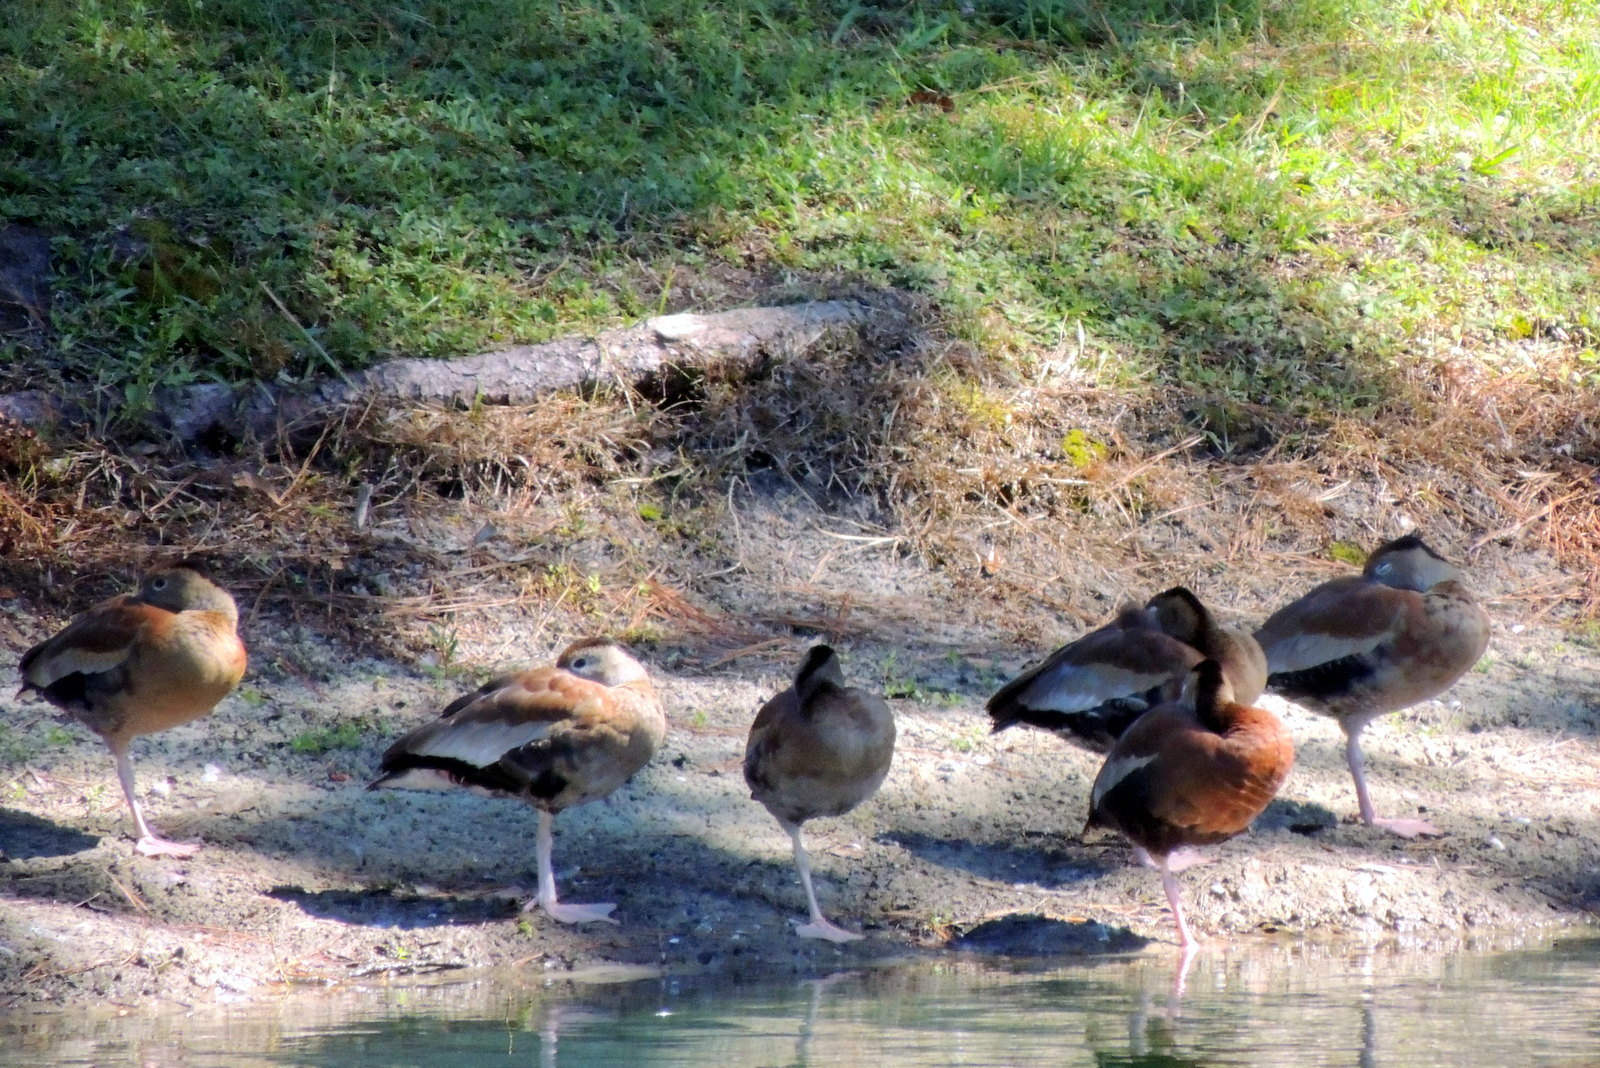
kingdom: Animalia
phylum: Chordata
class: Aves
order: Anseriformes
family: Anatidae
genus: Dendrocygna
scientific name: Dendrocygna autumnalis
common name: Black-bellied whistling duck
